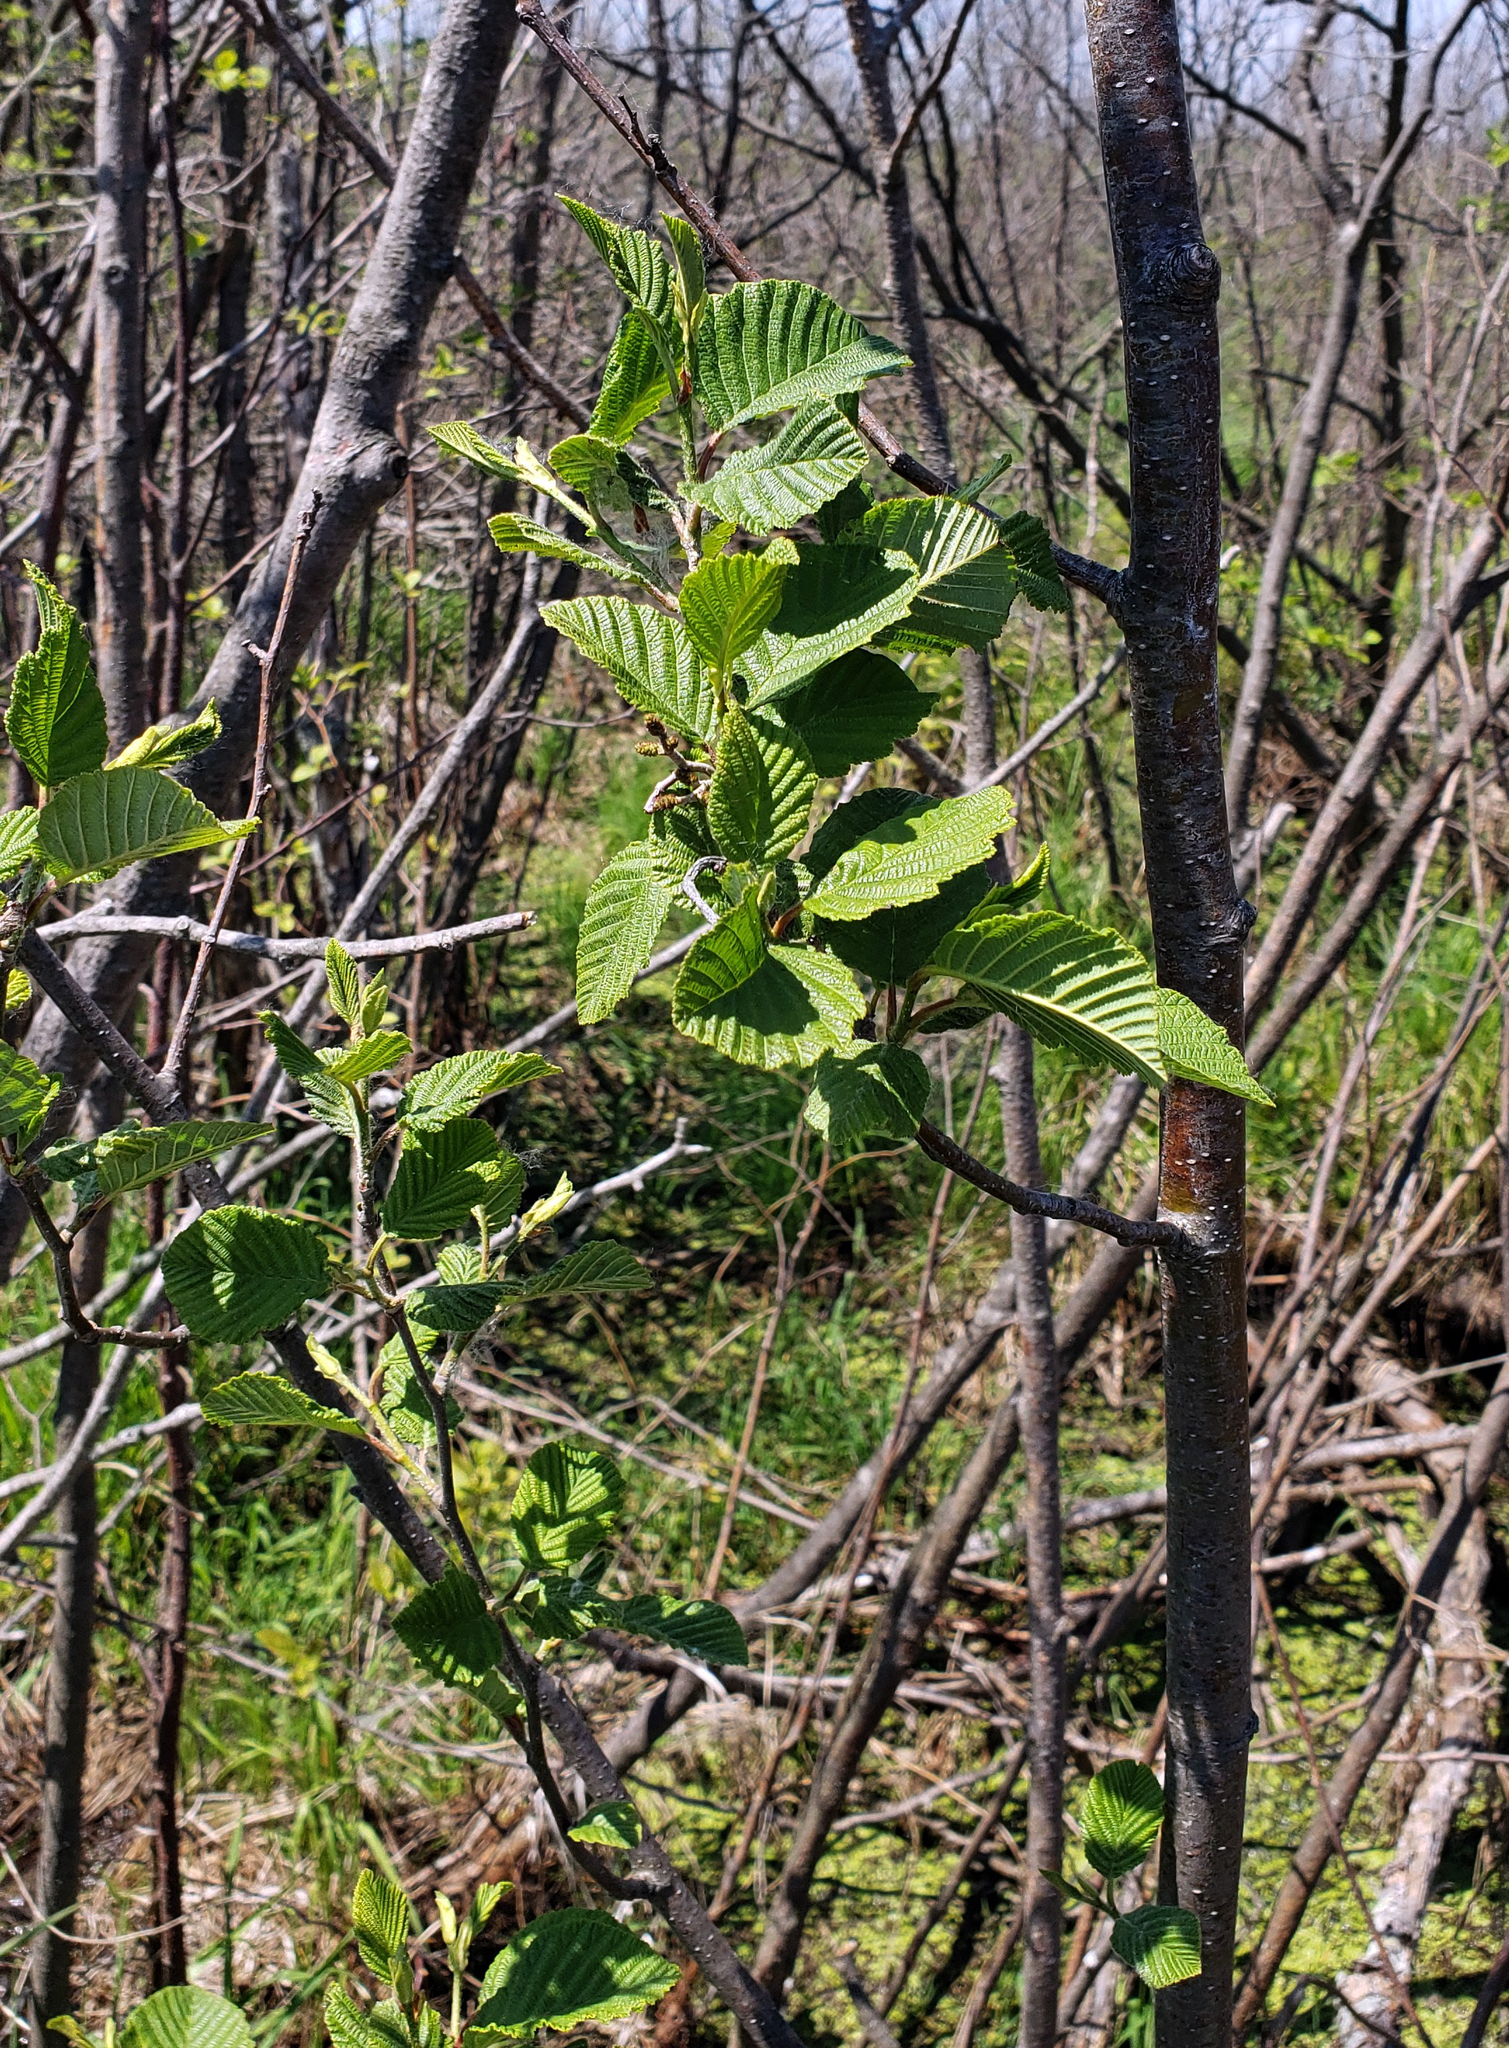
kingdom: Plantae
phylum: Tracheophyta
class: Magnoliopsida
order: Fagales
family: Betulaceae
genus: Alnus
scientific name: Alnus incana
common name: Grey alder
